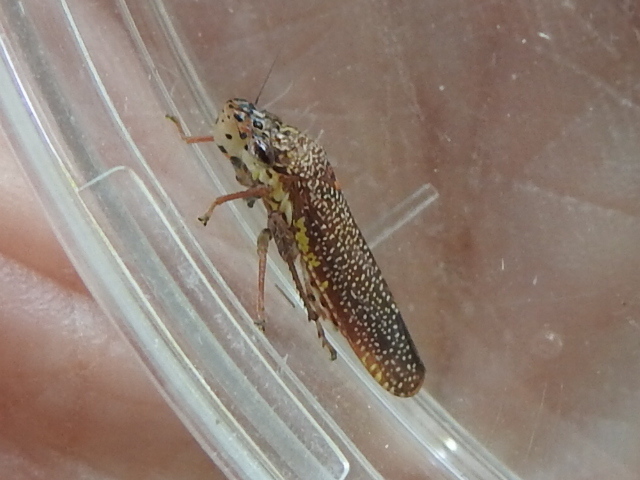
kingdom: Animalia
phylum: Arthropoda
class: Insecta
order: Hemiptera
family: Cicadellidae
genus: Paraulacizes
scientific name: Paraulacizes irrorata
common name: Speckled sharpshooter
